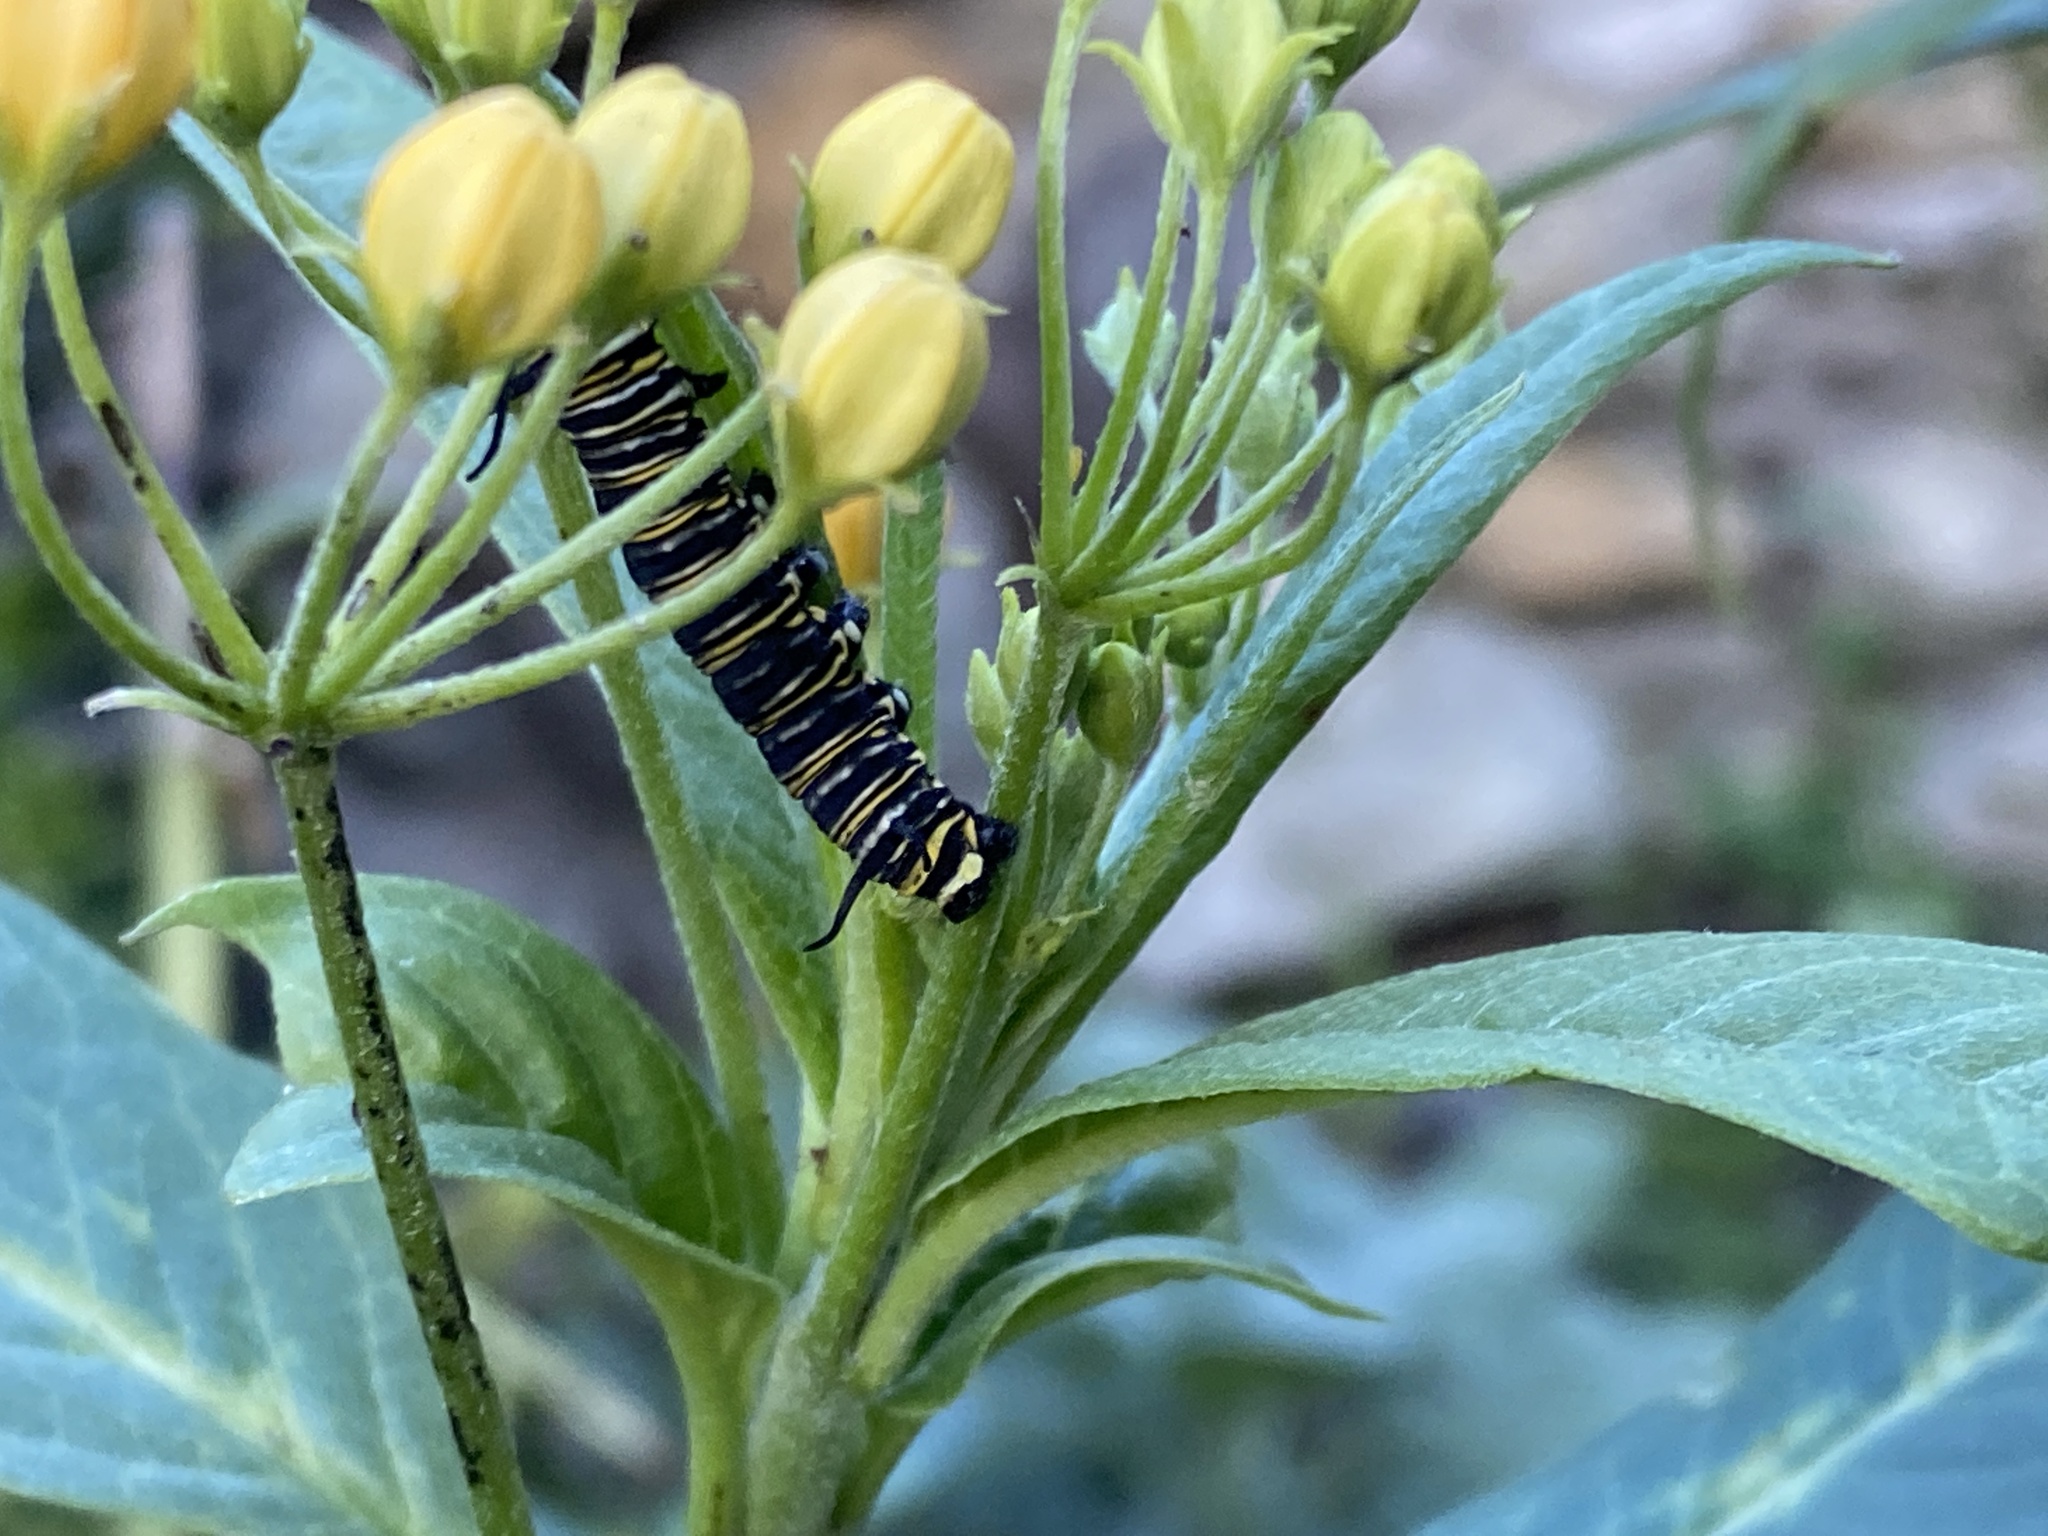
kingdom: Animalia
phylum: Arthropoda
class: Insecta
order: Lepidoptera
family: Nymphalidae
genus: Danaus
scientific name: Danaus plexippus
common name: Monarch
